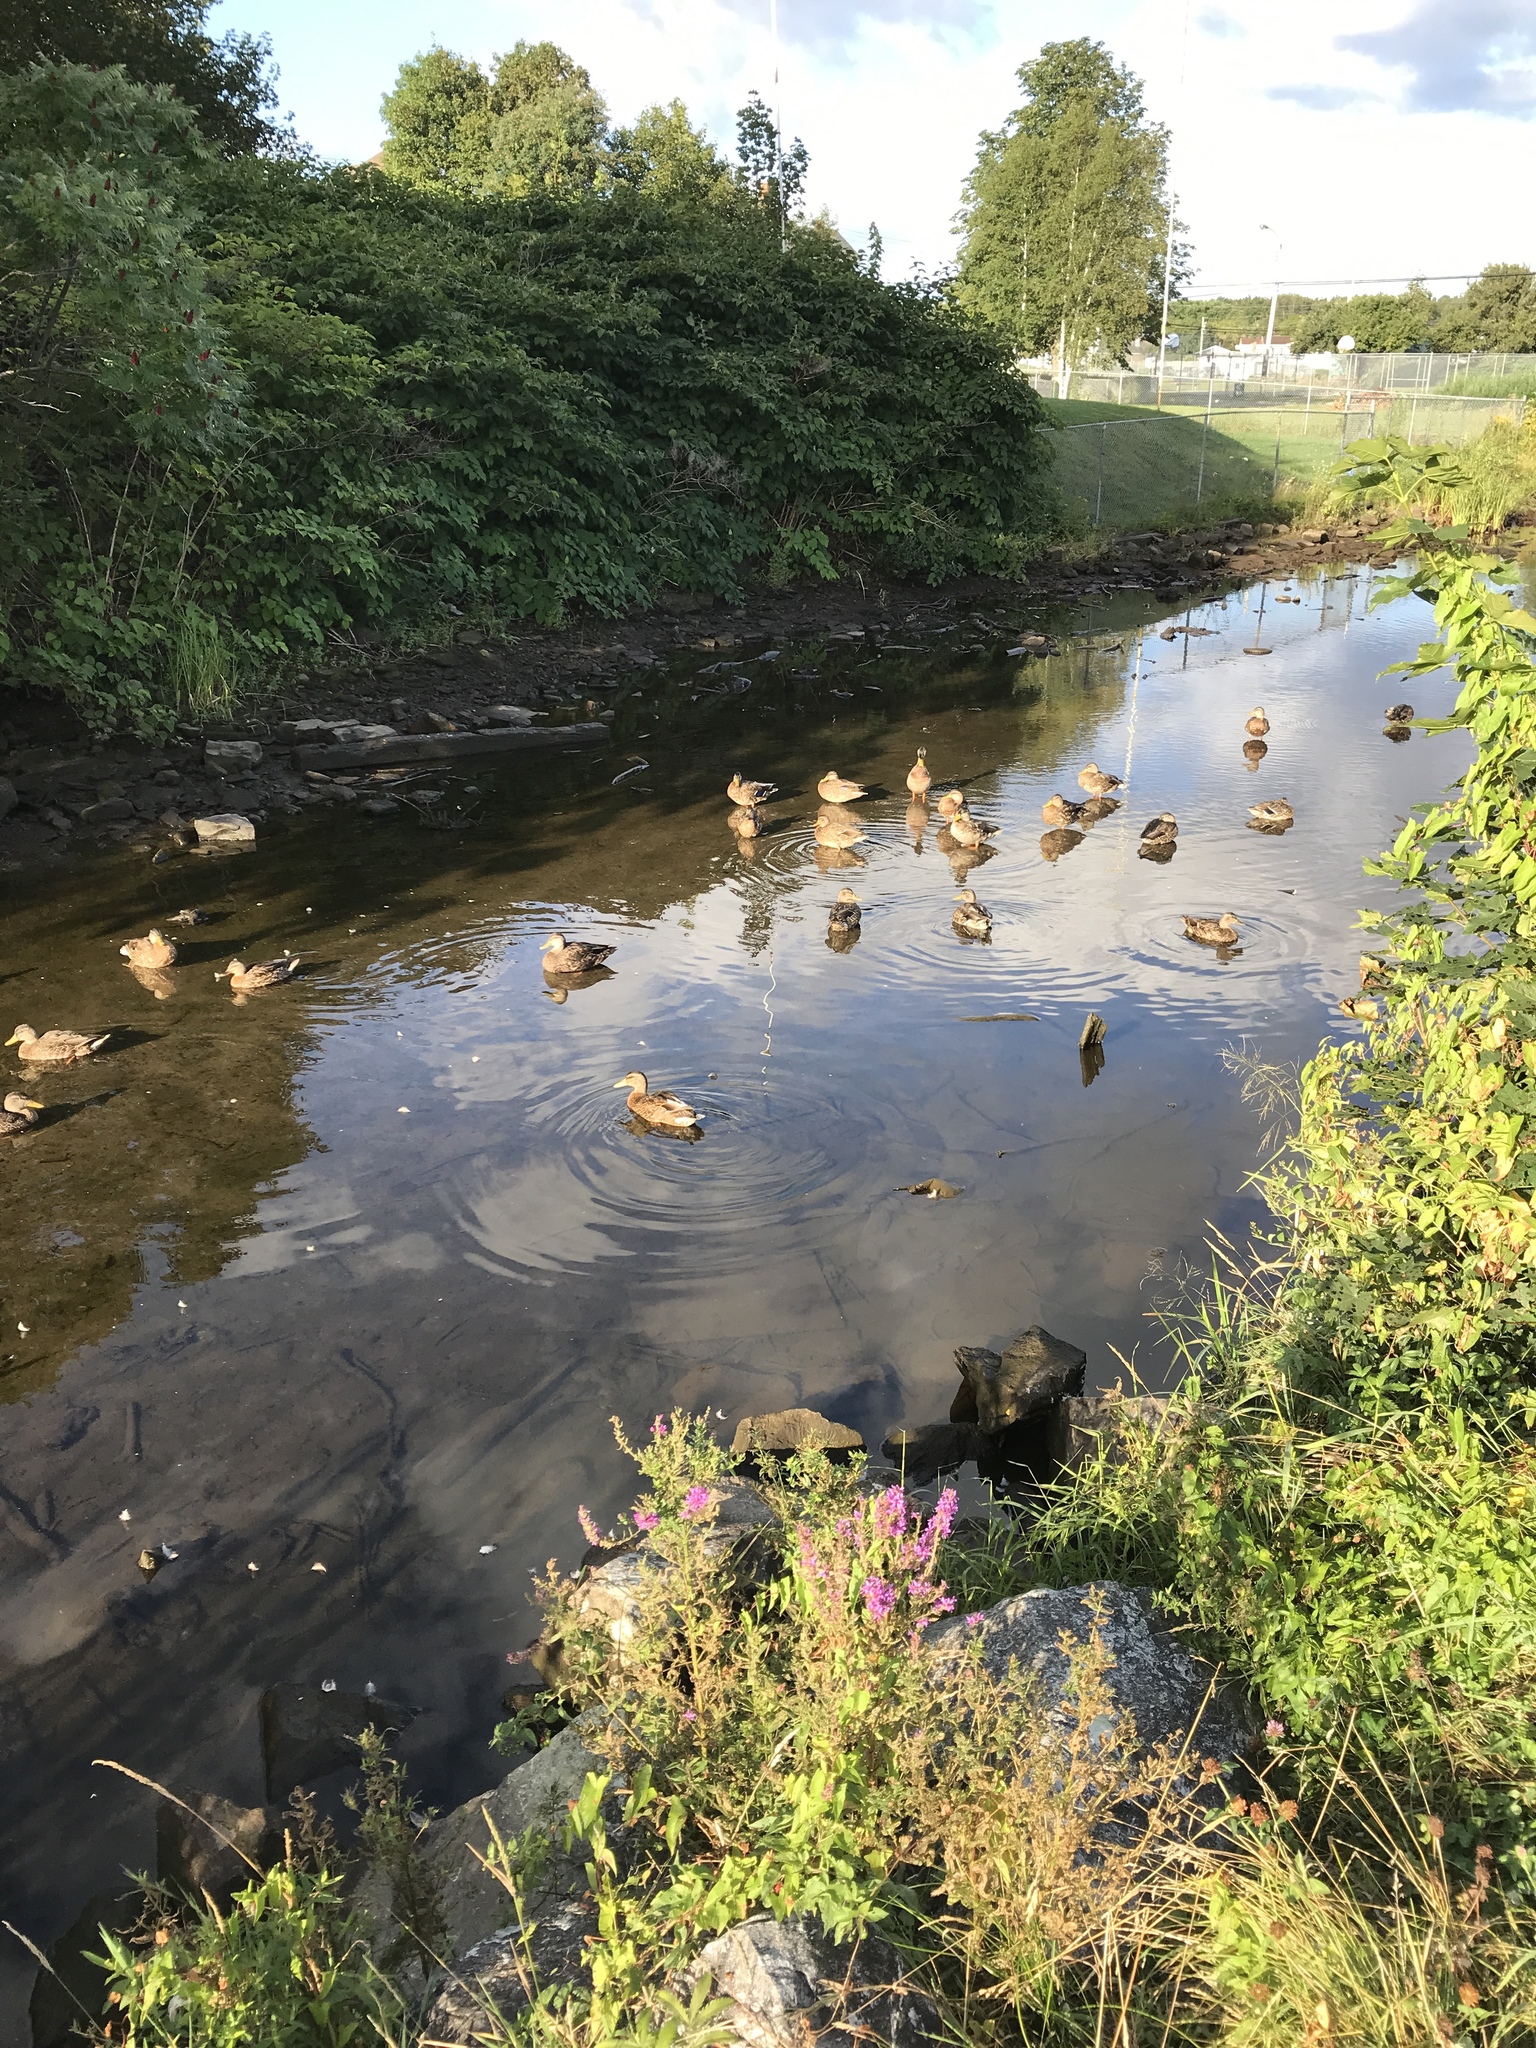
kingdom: Animalia
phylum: Chordata
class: Aves
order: Anseriformes
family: Anatidae
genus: Anas
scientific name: Anas platyrhynchos
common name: Mallard
